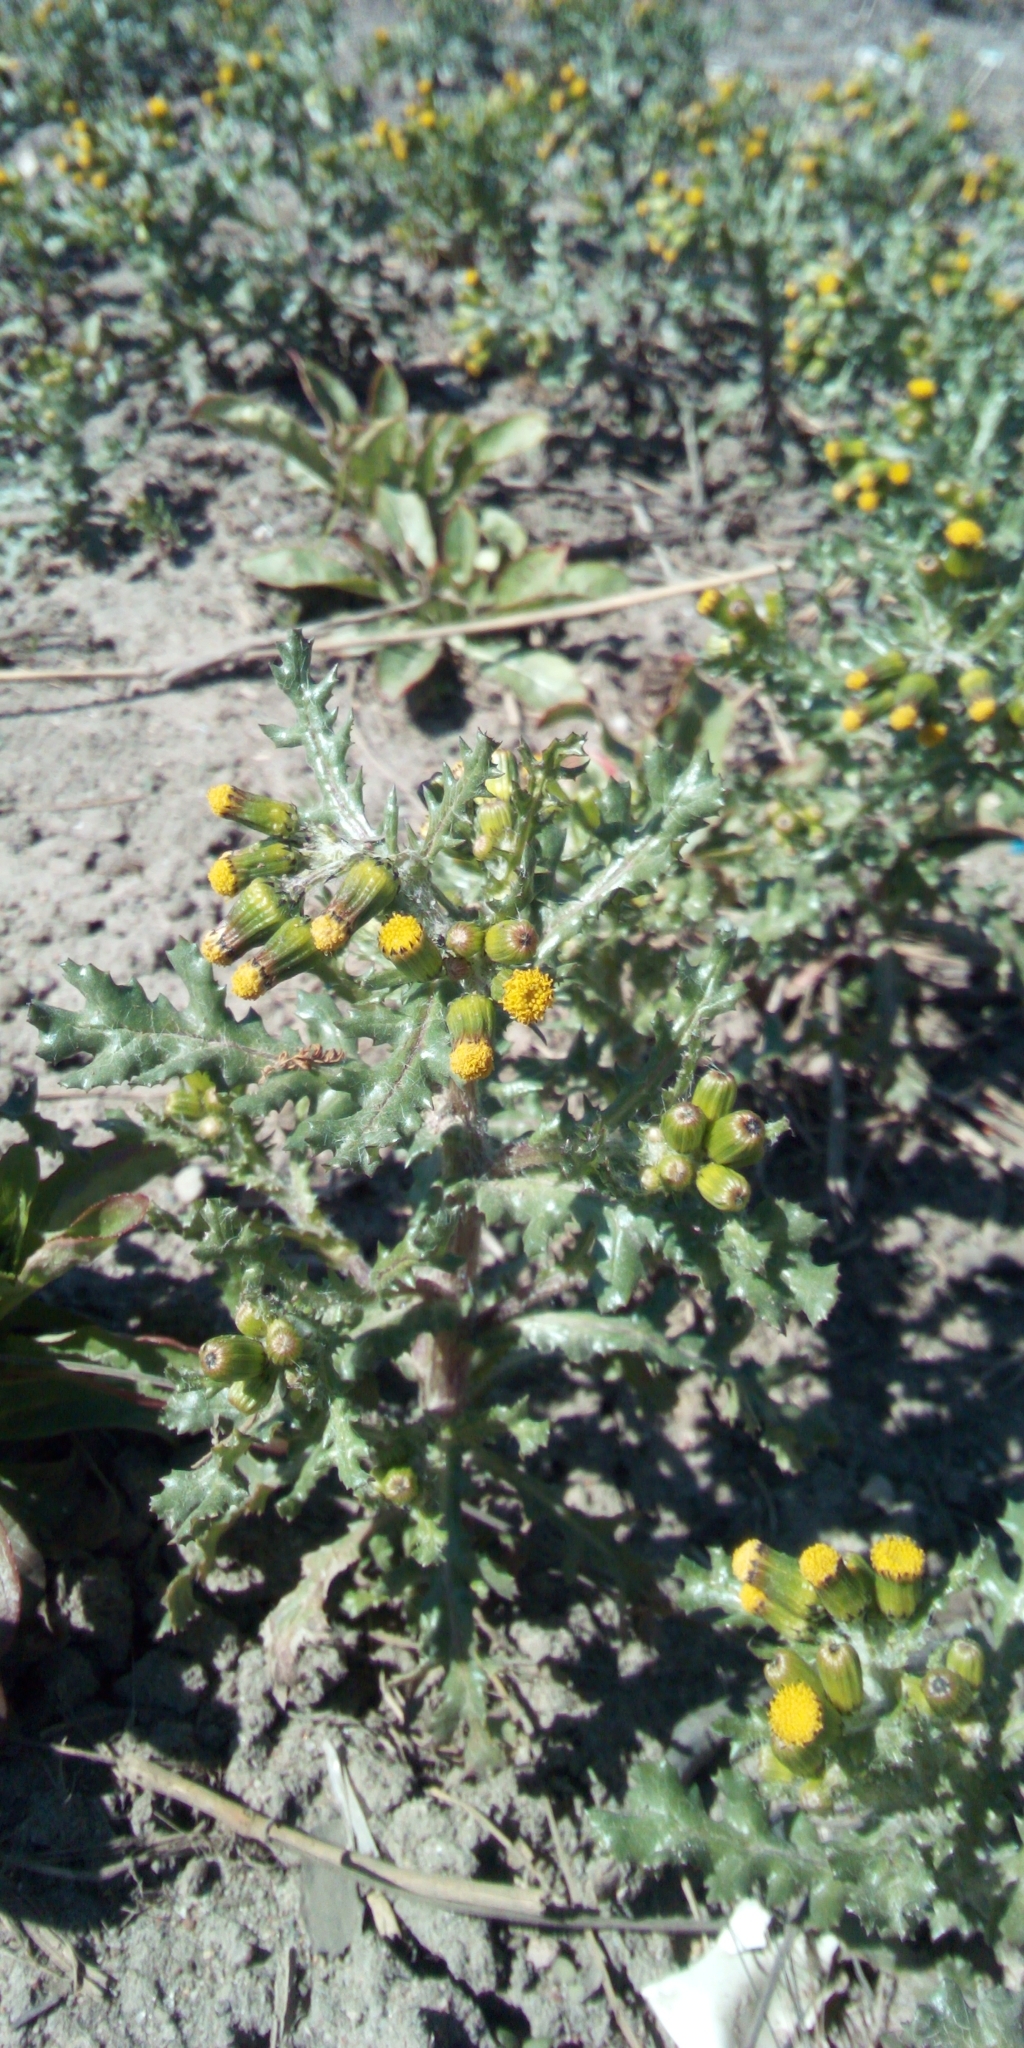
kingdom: Plantae
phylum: Tracheophyta
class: Magnoliopsida
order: Asterales
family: Asteraceae
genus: Senecio
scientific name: Senecio vulgaris
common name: Old-man-in-the-spring
